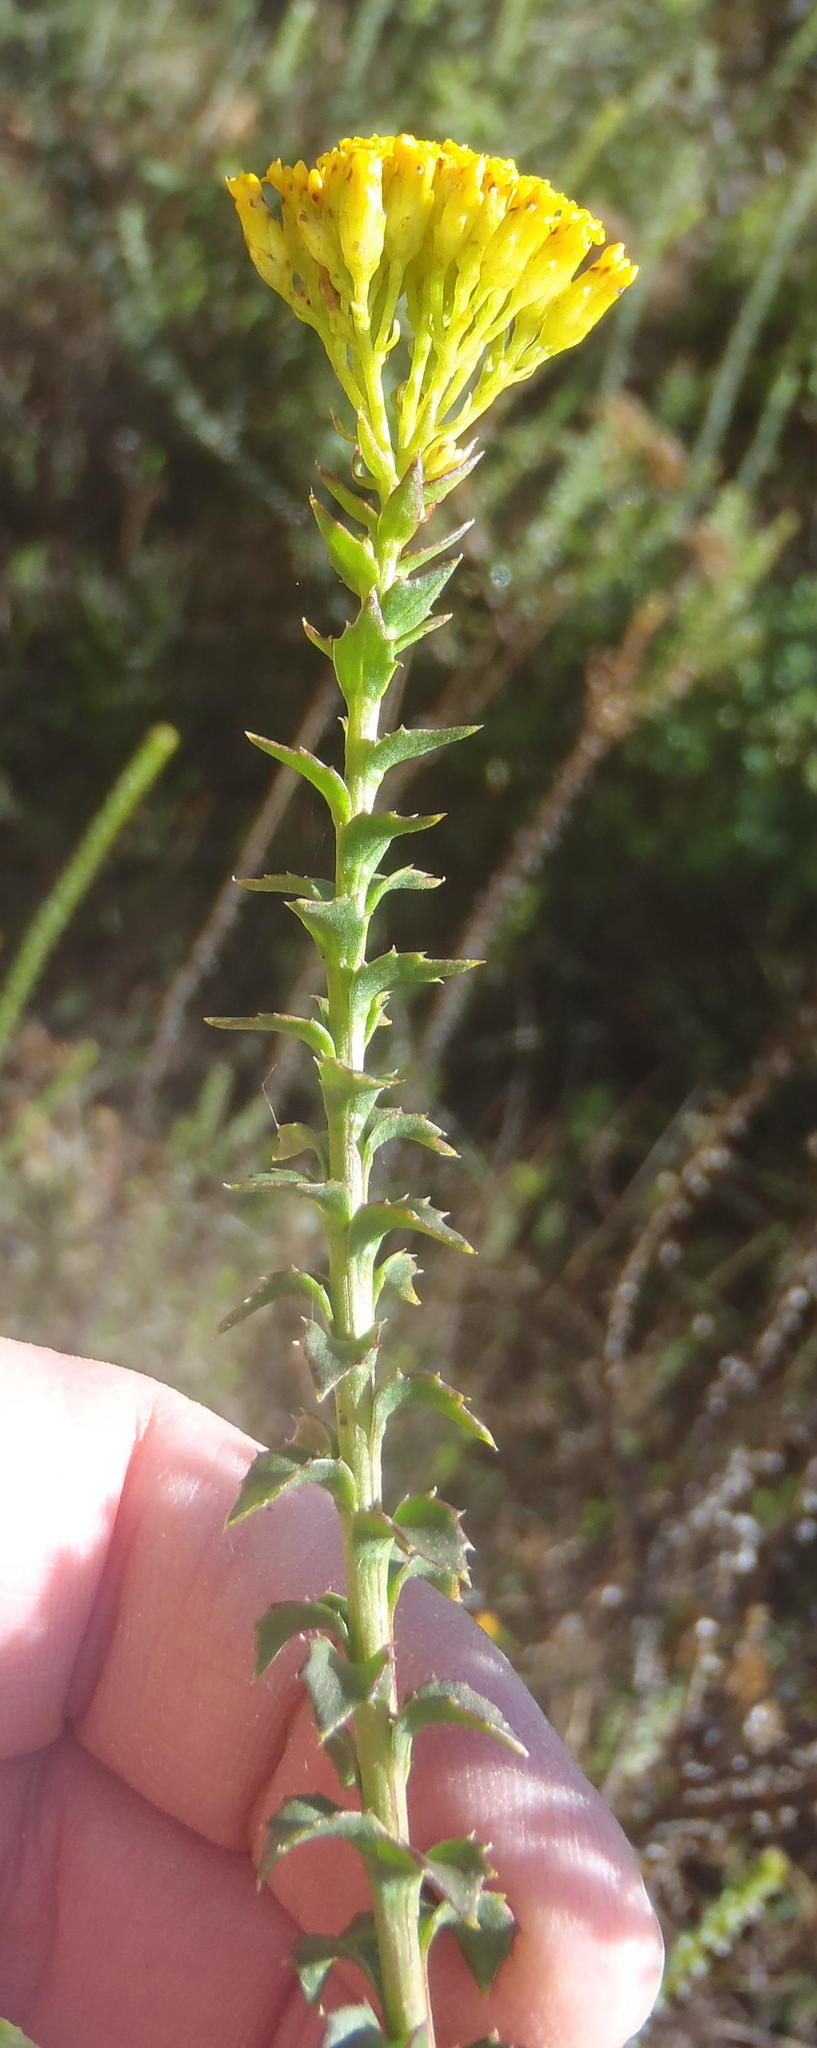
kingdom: Plantae
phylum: Tracheophyta
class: Magnoliopsida
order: Asterales
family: Asteraceae
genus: Athanasia
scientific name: Athanasia dentata
